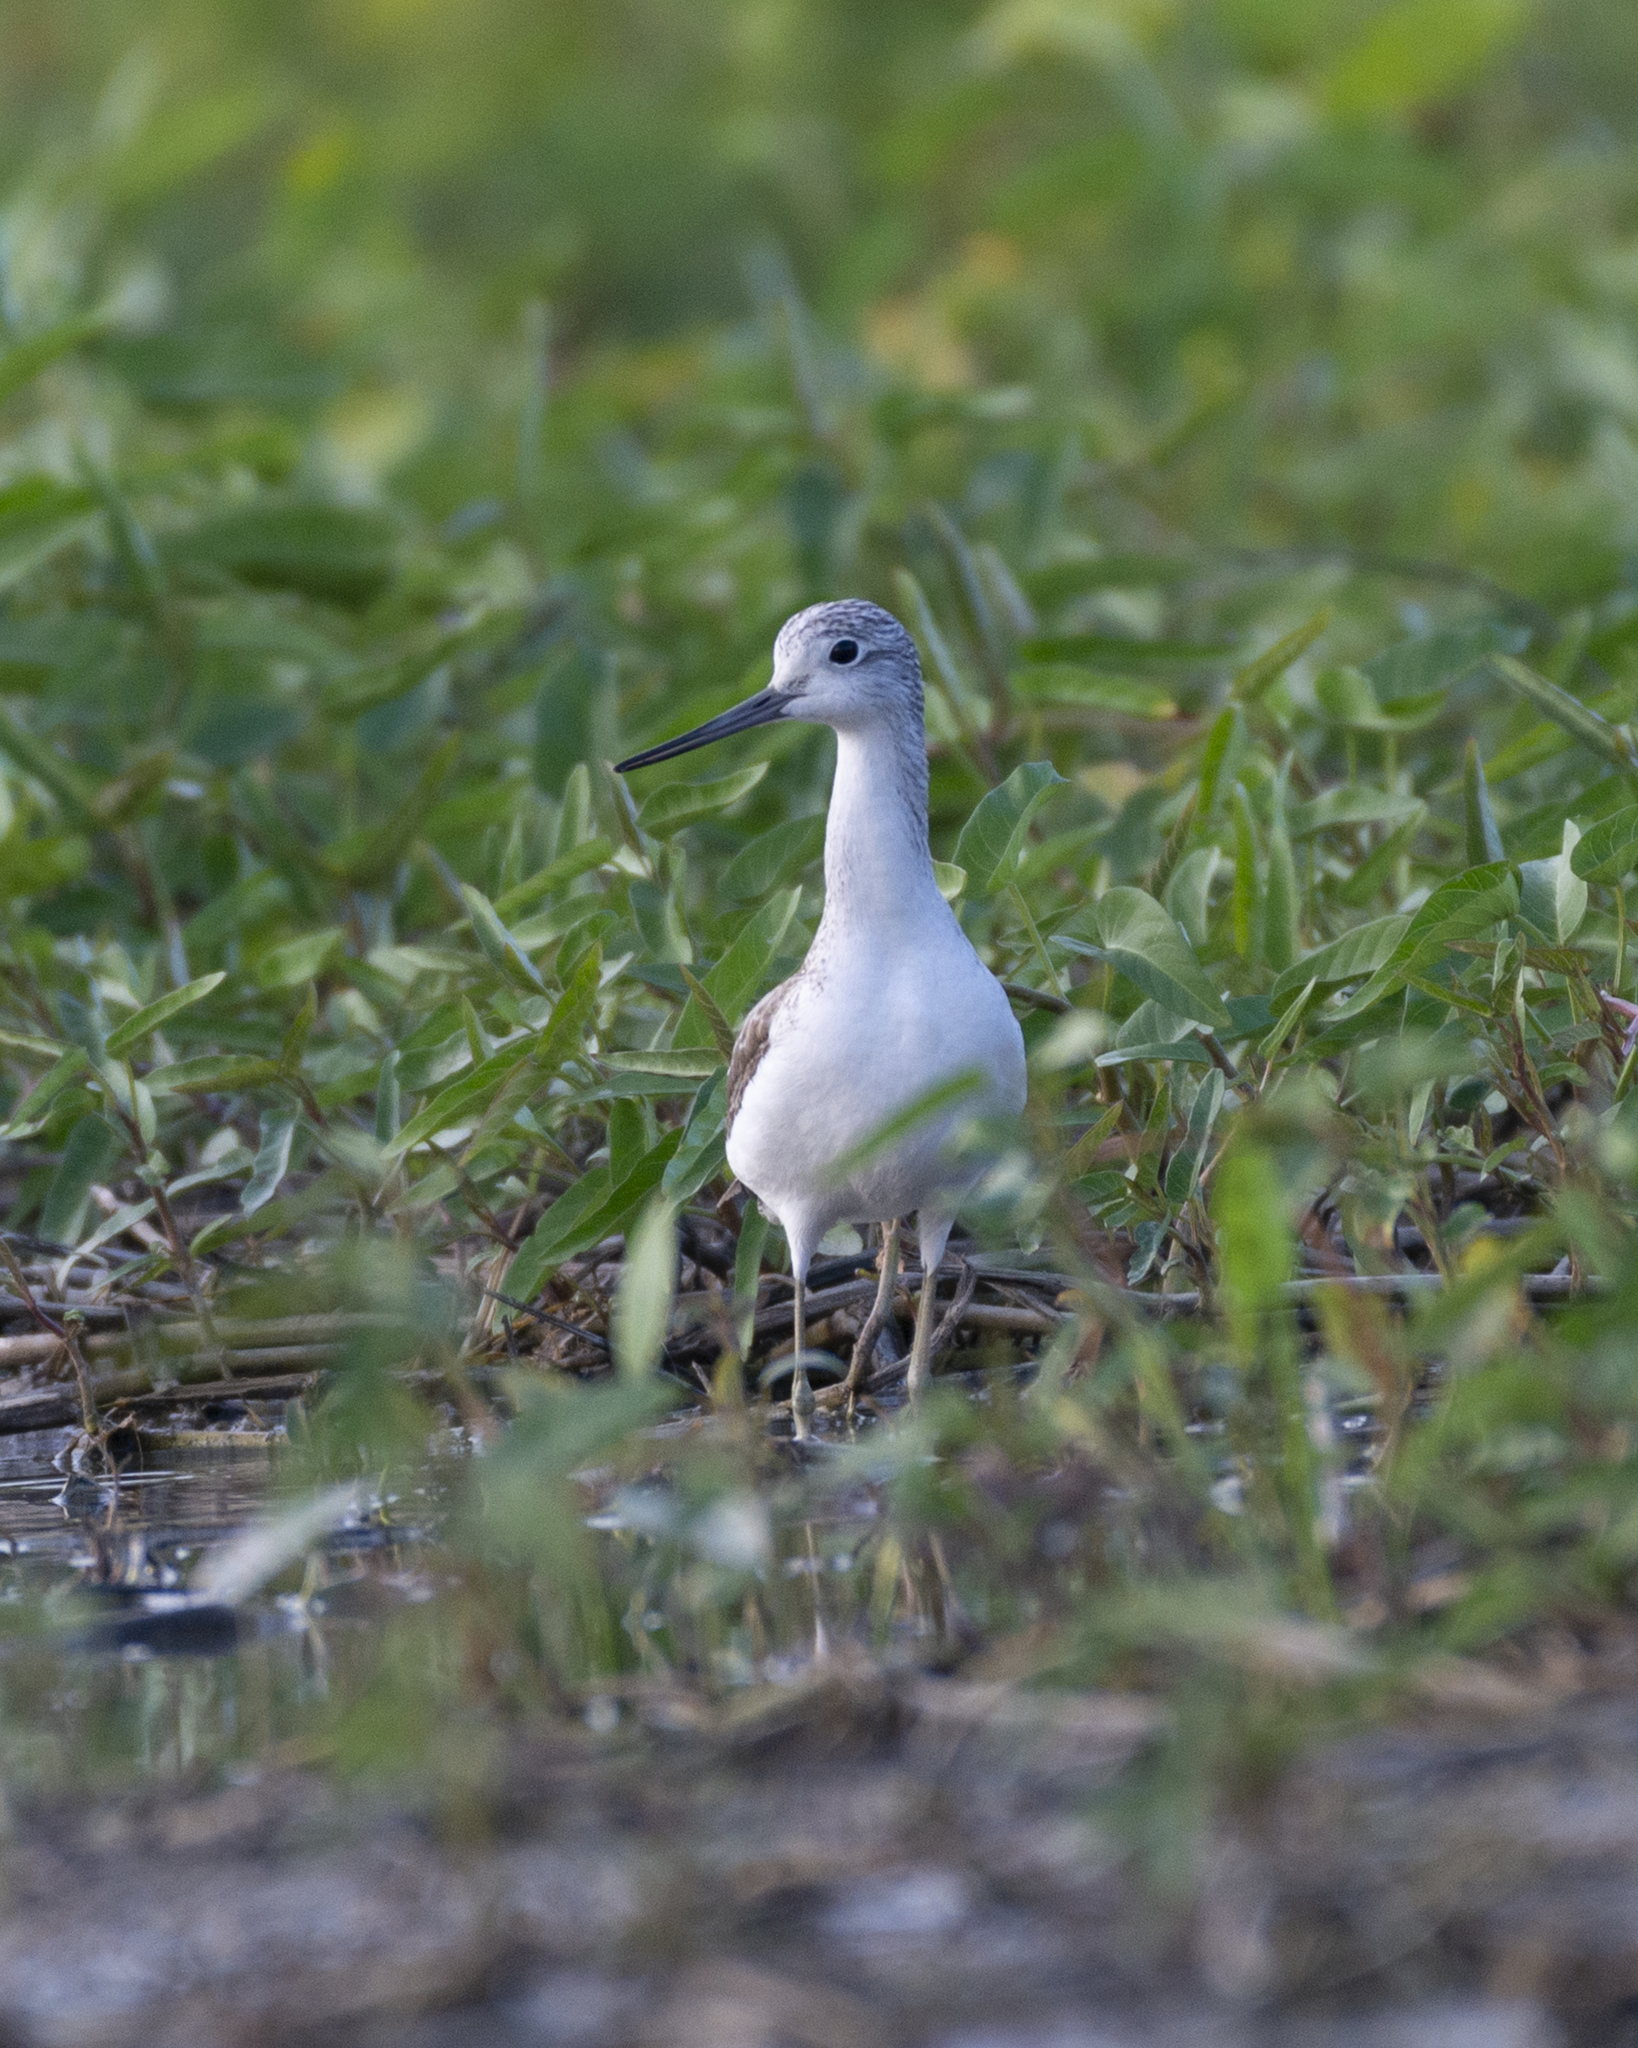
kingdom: Animalia
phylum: Chordata
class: Aves
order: Charadriiformes
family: Scolopacidae
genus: Tringa
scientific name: Tringa nebularia
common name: Common greenshank
